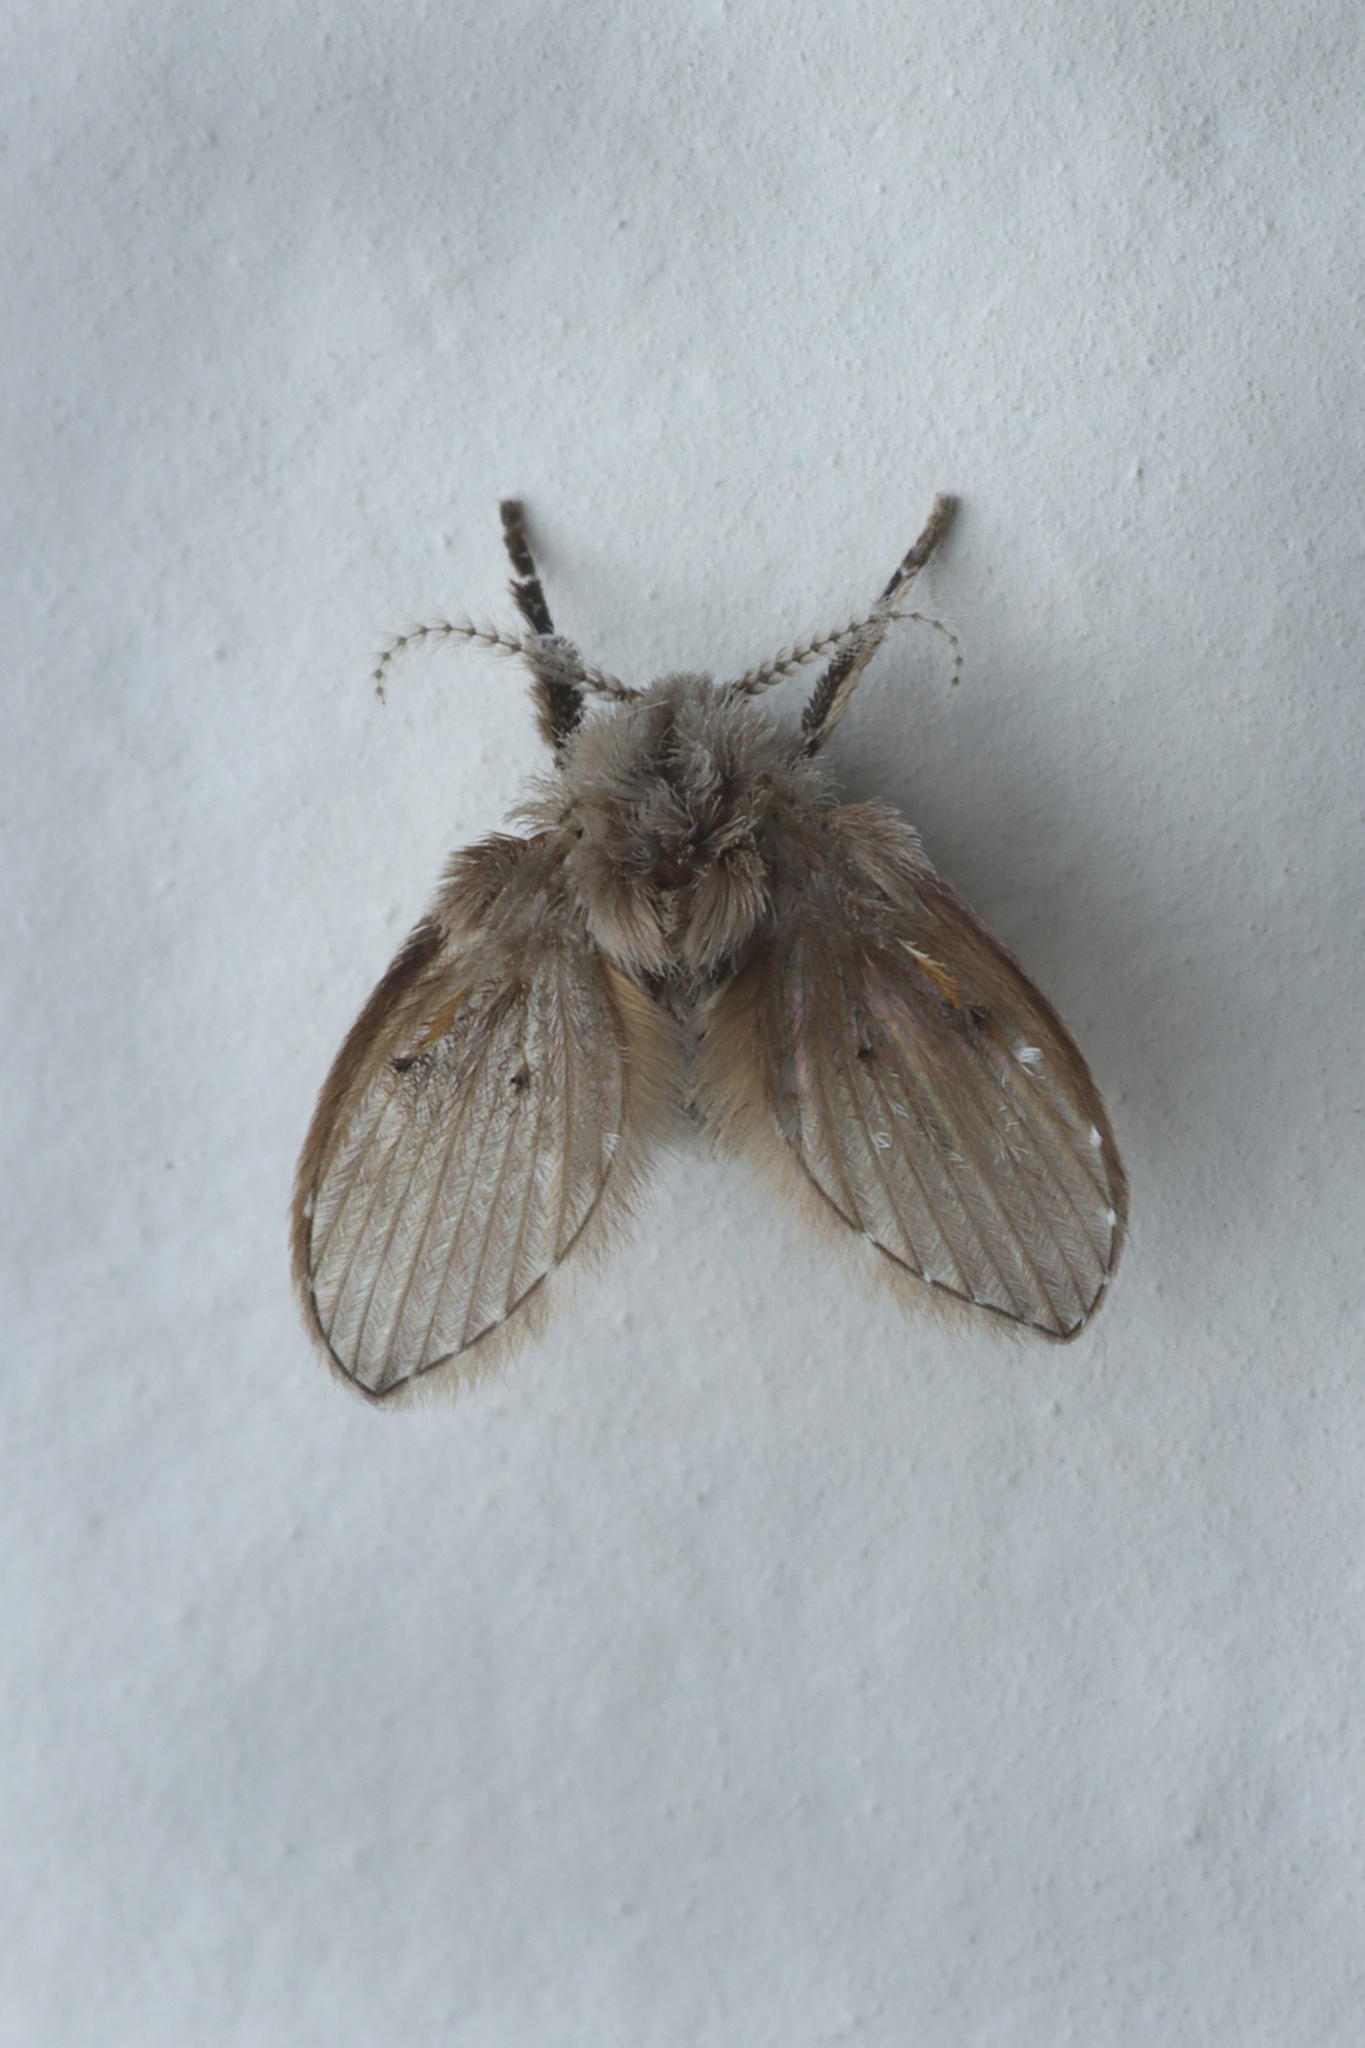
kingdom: Animalia
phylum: Arthropoda
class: Insecta
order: Diptera
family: Psychodidae
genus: Clogmia
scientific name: Clogmia albipunctatus
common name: White-spotted moth fly
